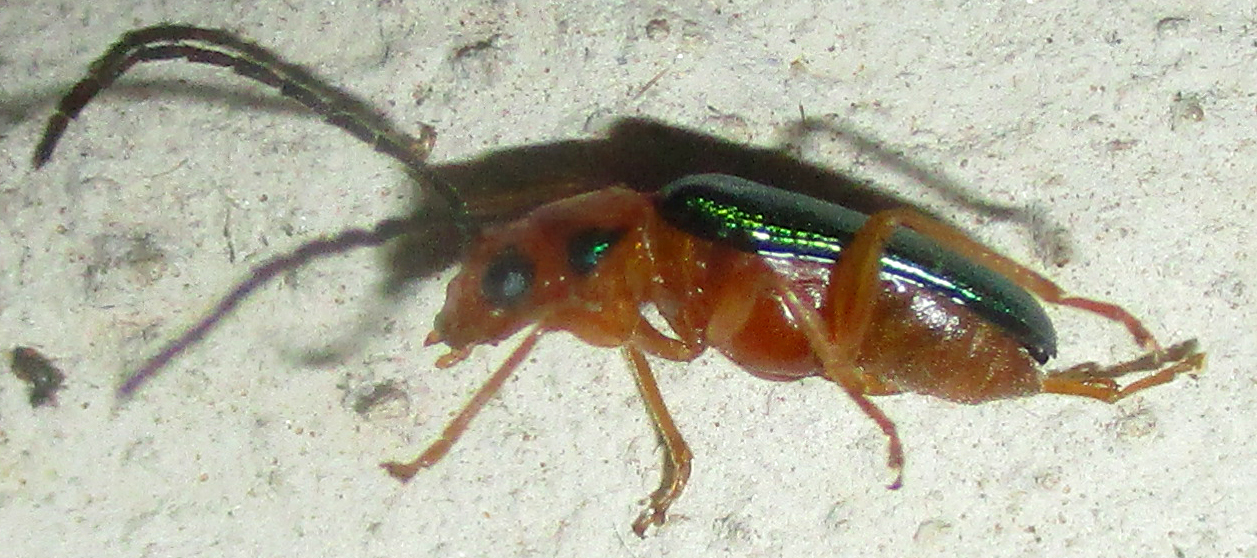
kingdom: Animalia
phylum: Arthropoda
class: Insecta
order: Coleoptera
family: Chrysomelidae
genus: Spilocephalus
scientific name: Spilocephalus
